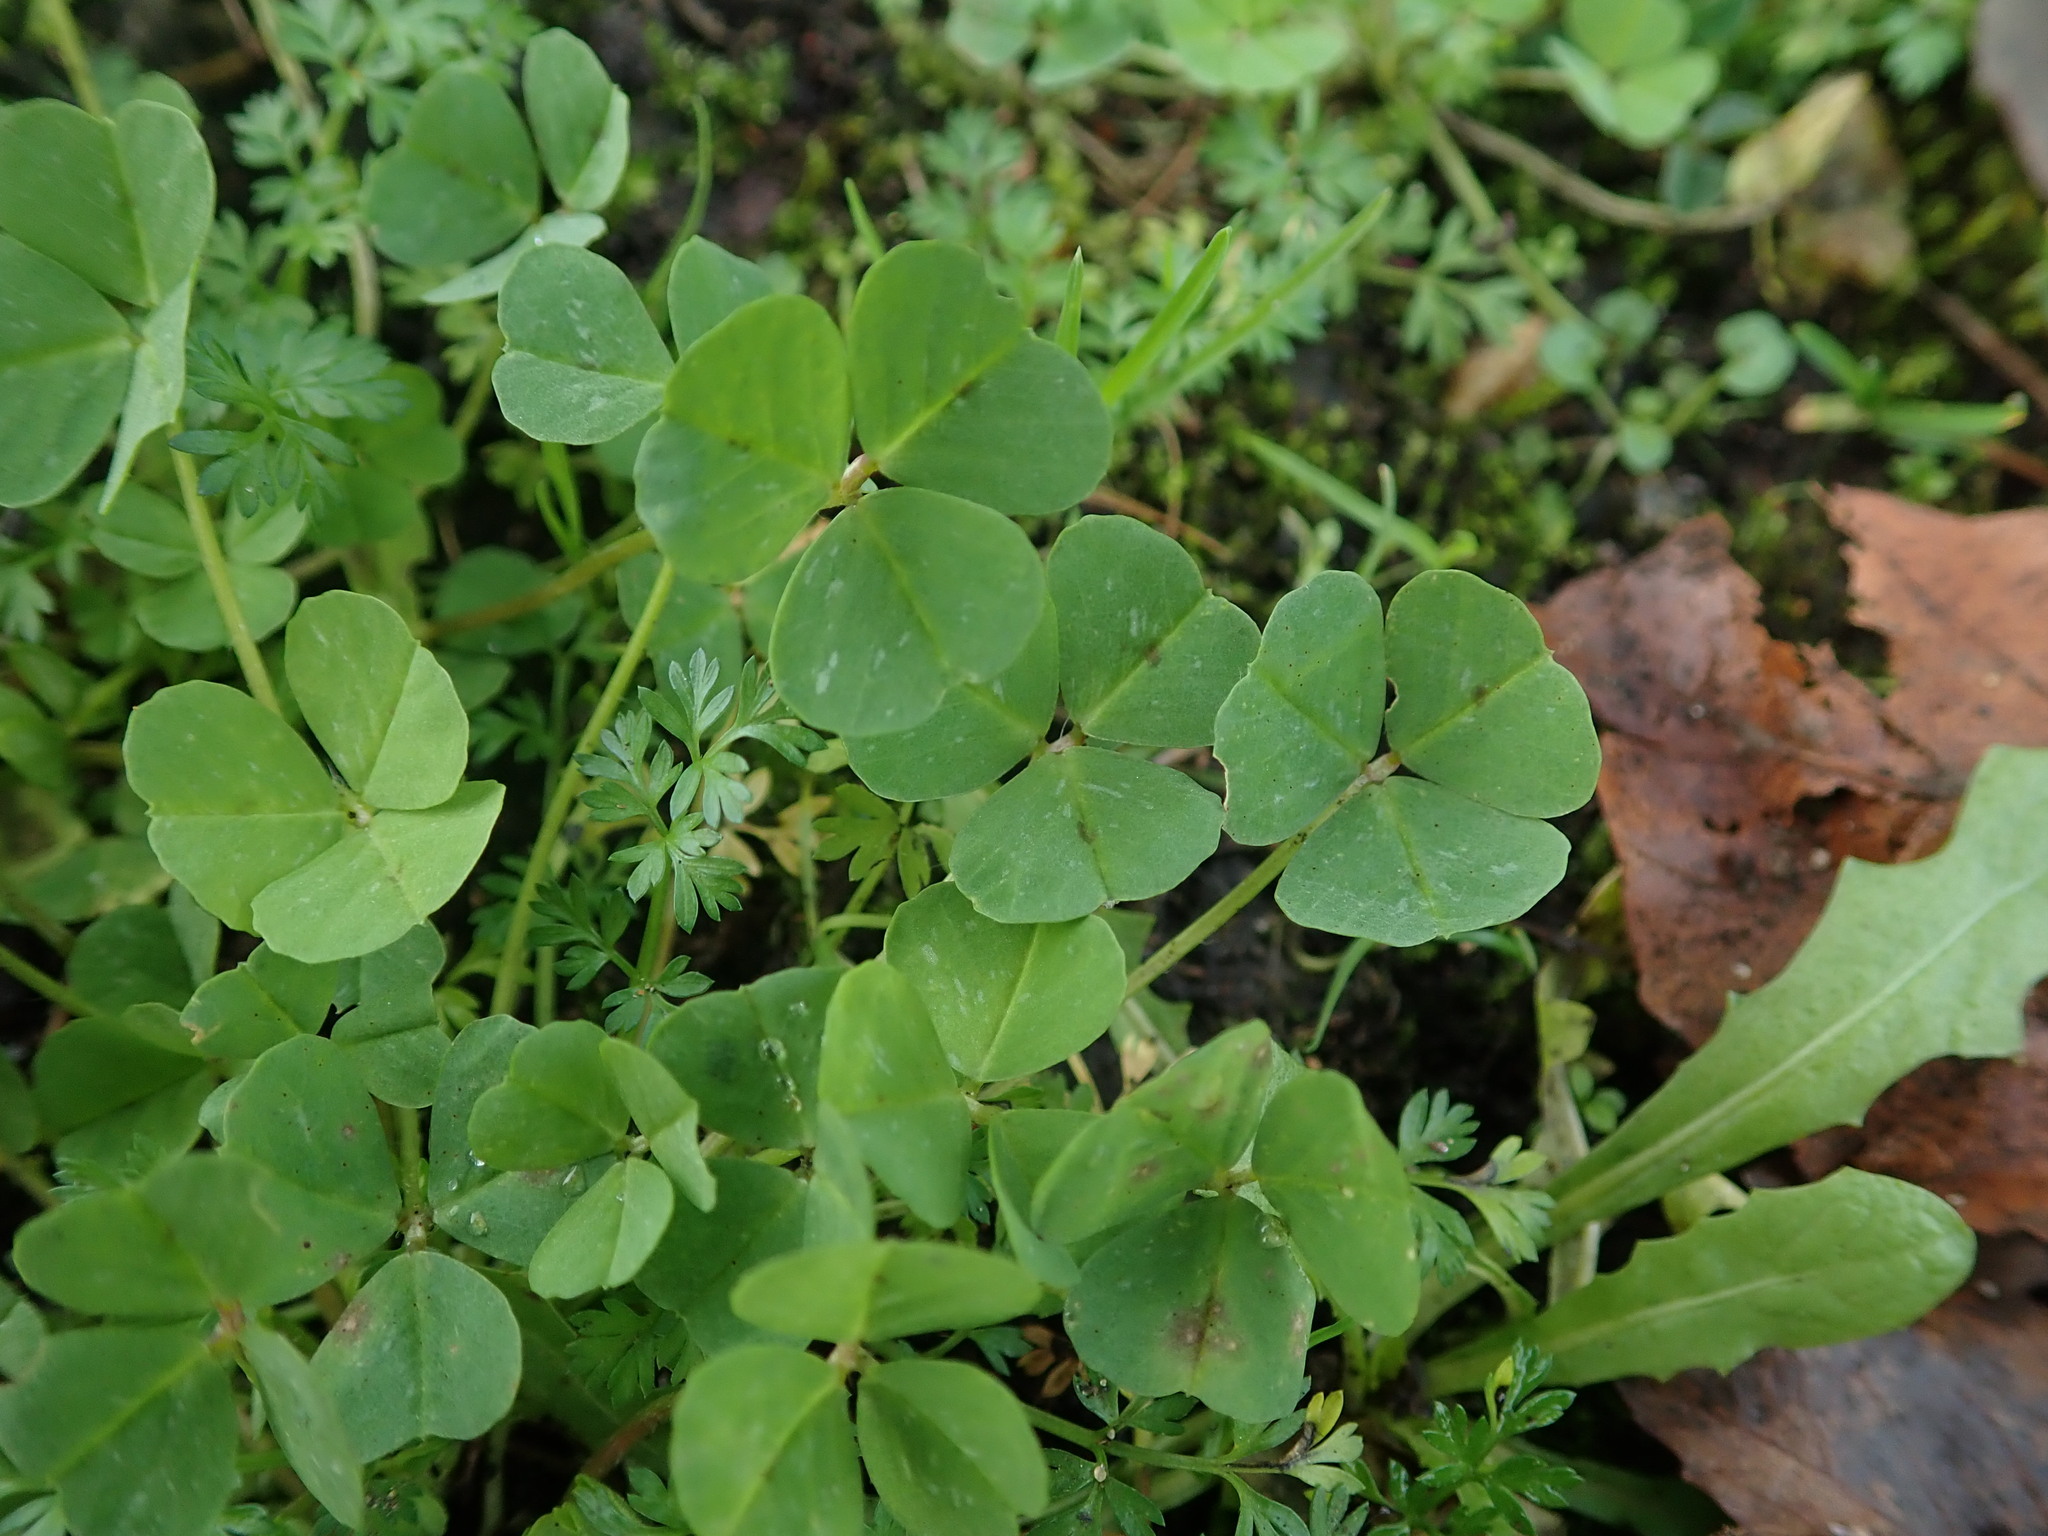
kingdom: Plantae
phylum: Tracheophyta
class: Magnoliopsida
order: Fabales
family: Fabaceae
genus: Medicago
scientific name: Medicago arabica
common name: Spotted medick
